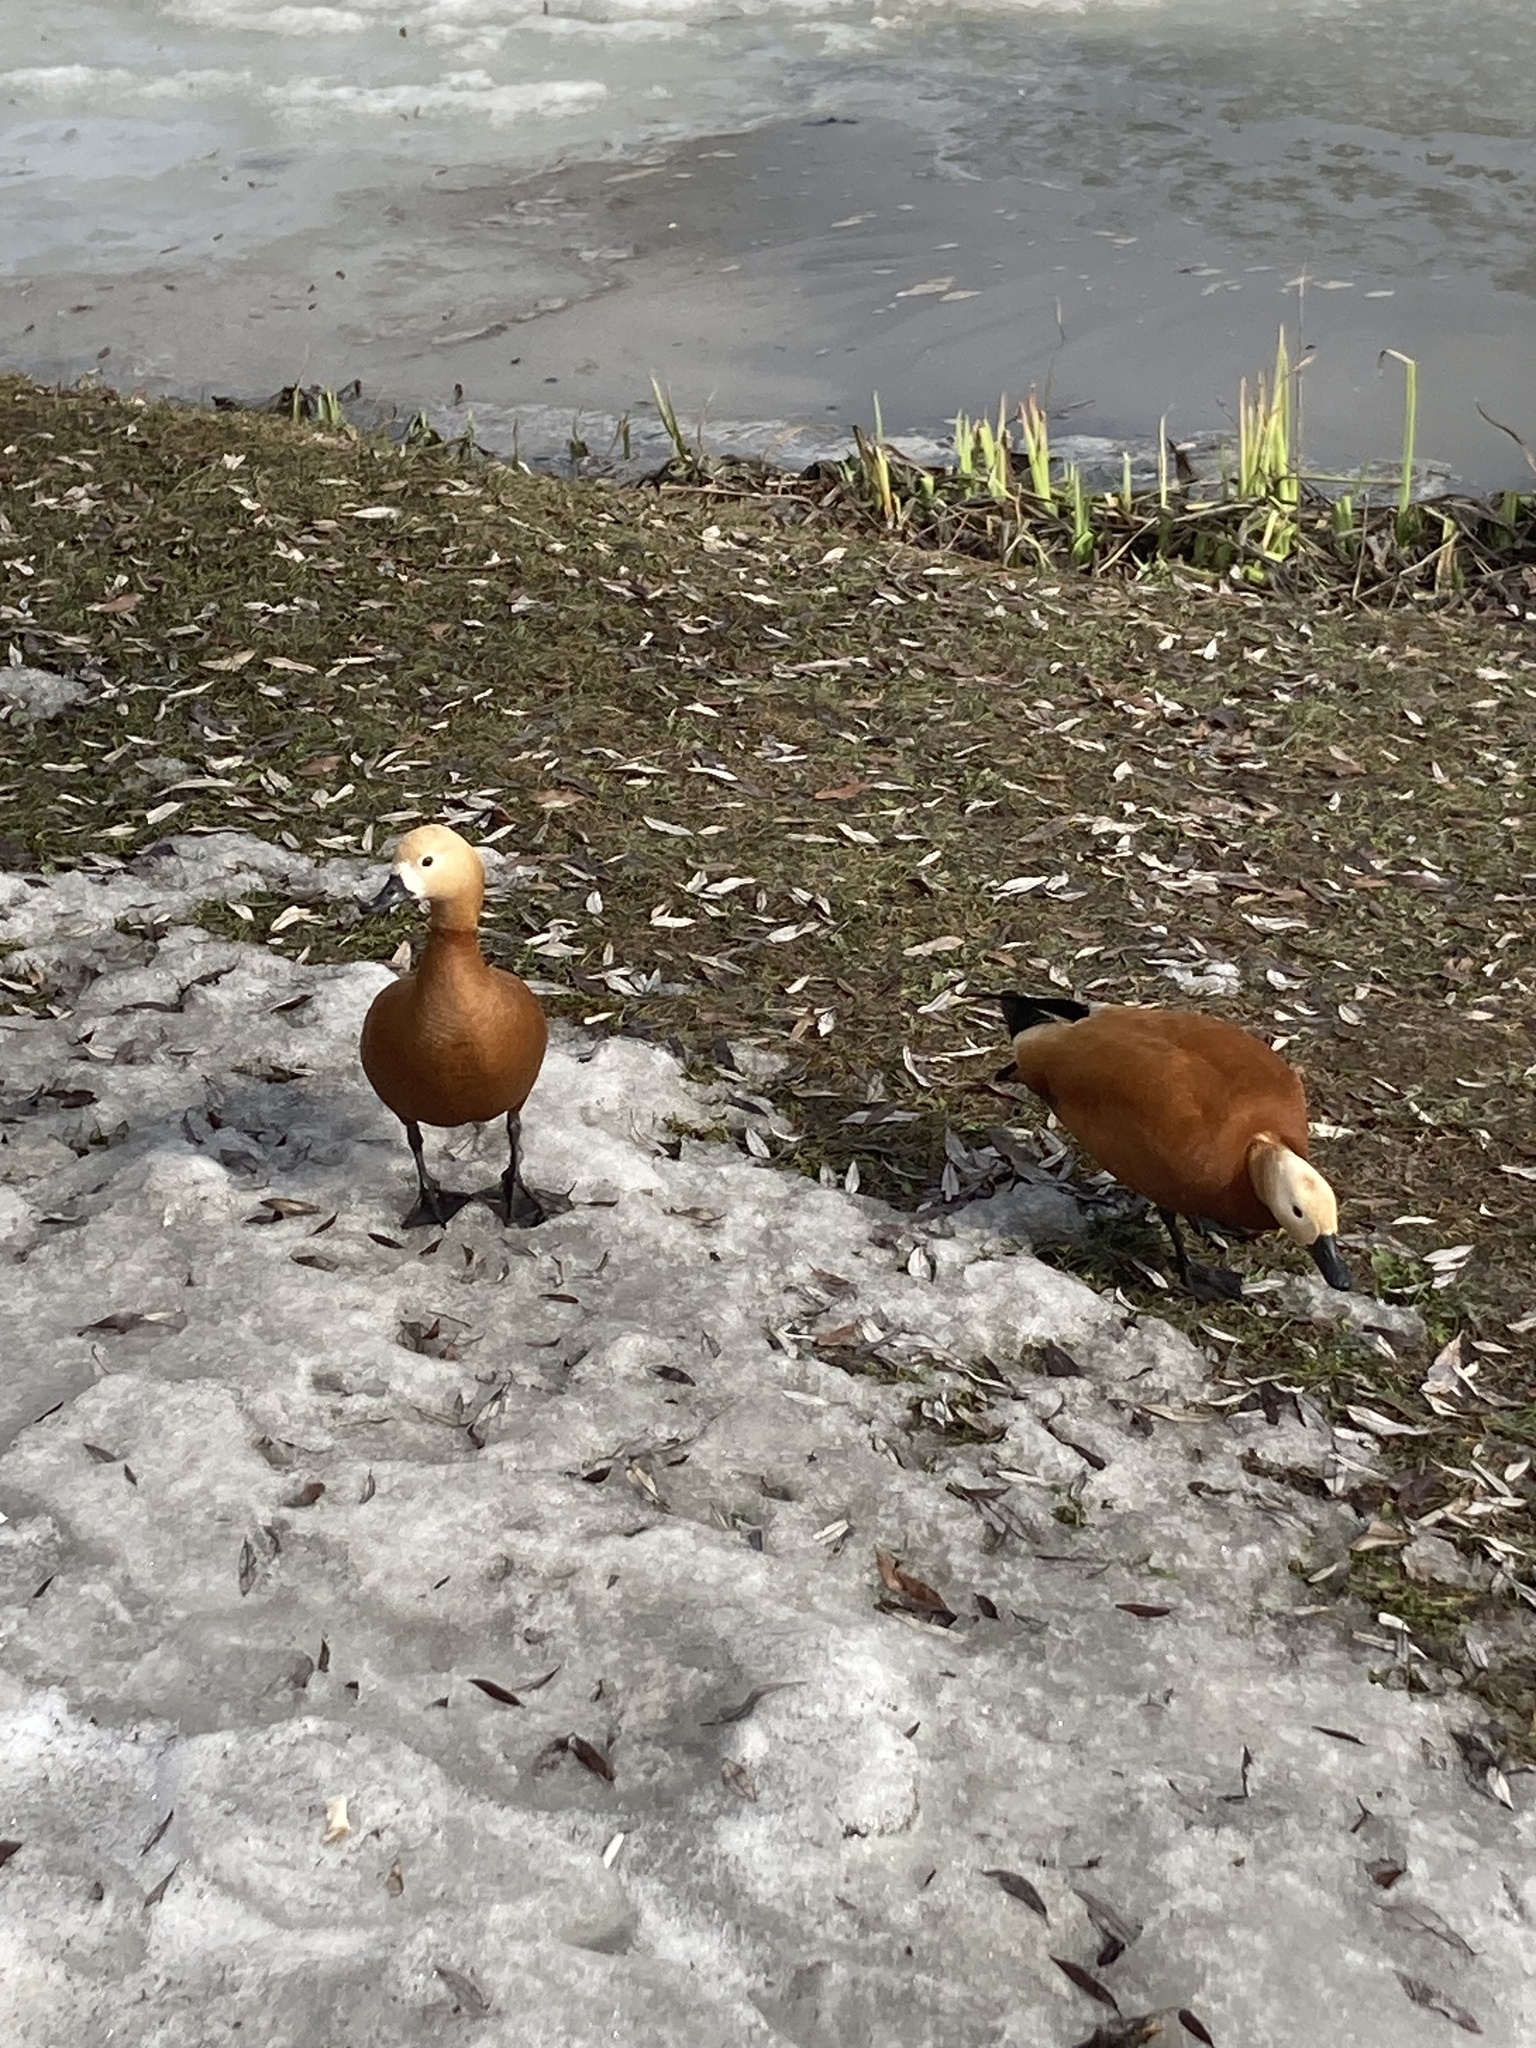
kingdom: Animalia
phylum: Chordata
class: Aves
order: Anseriformes
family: Anatidae
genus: Tadorna
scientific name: Tadorna ferruginea
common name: Ruddy shelduck
